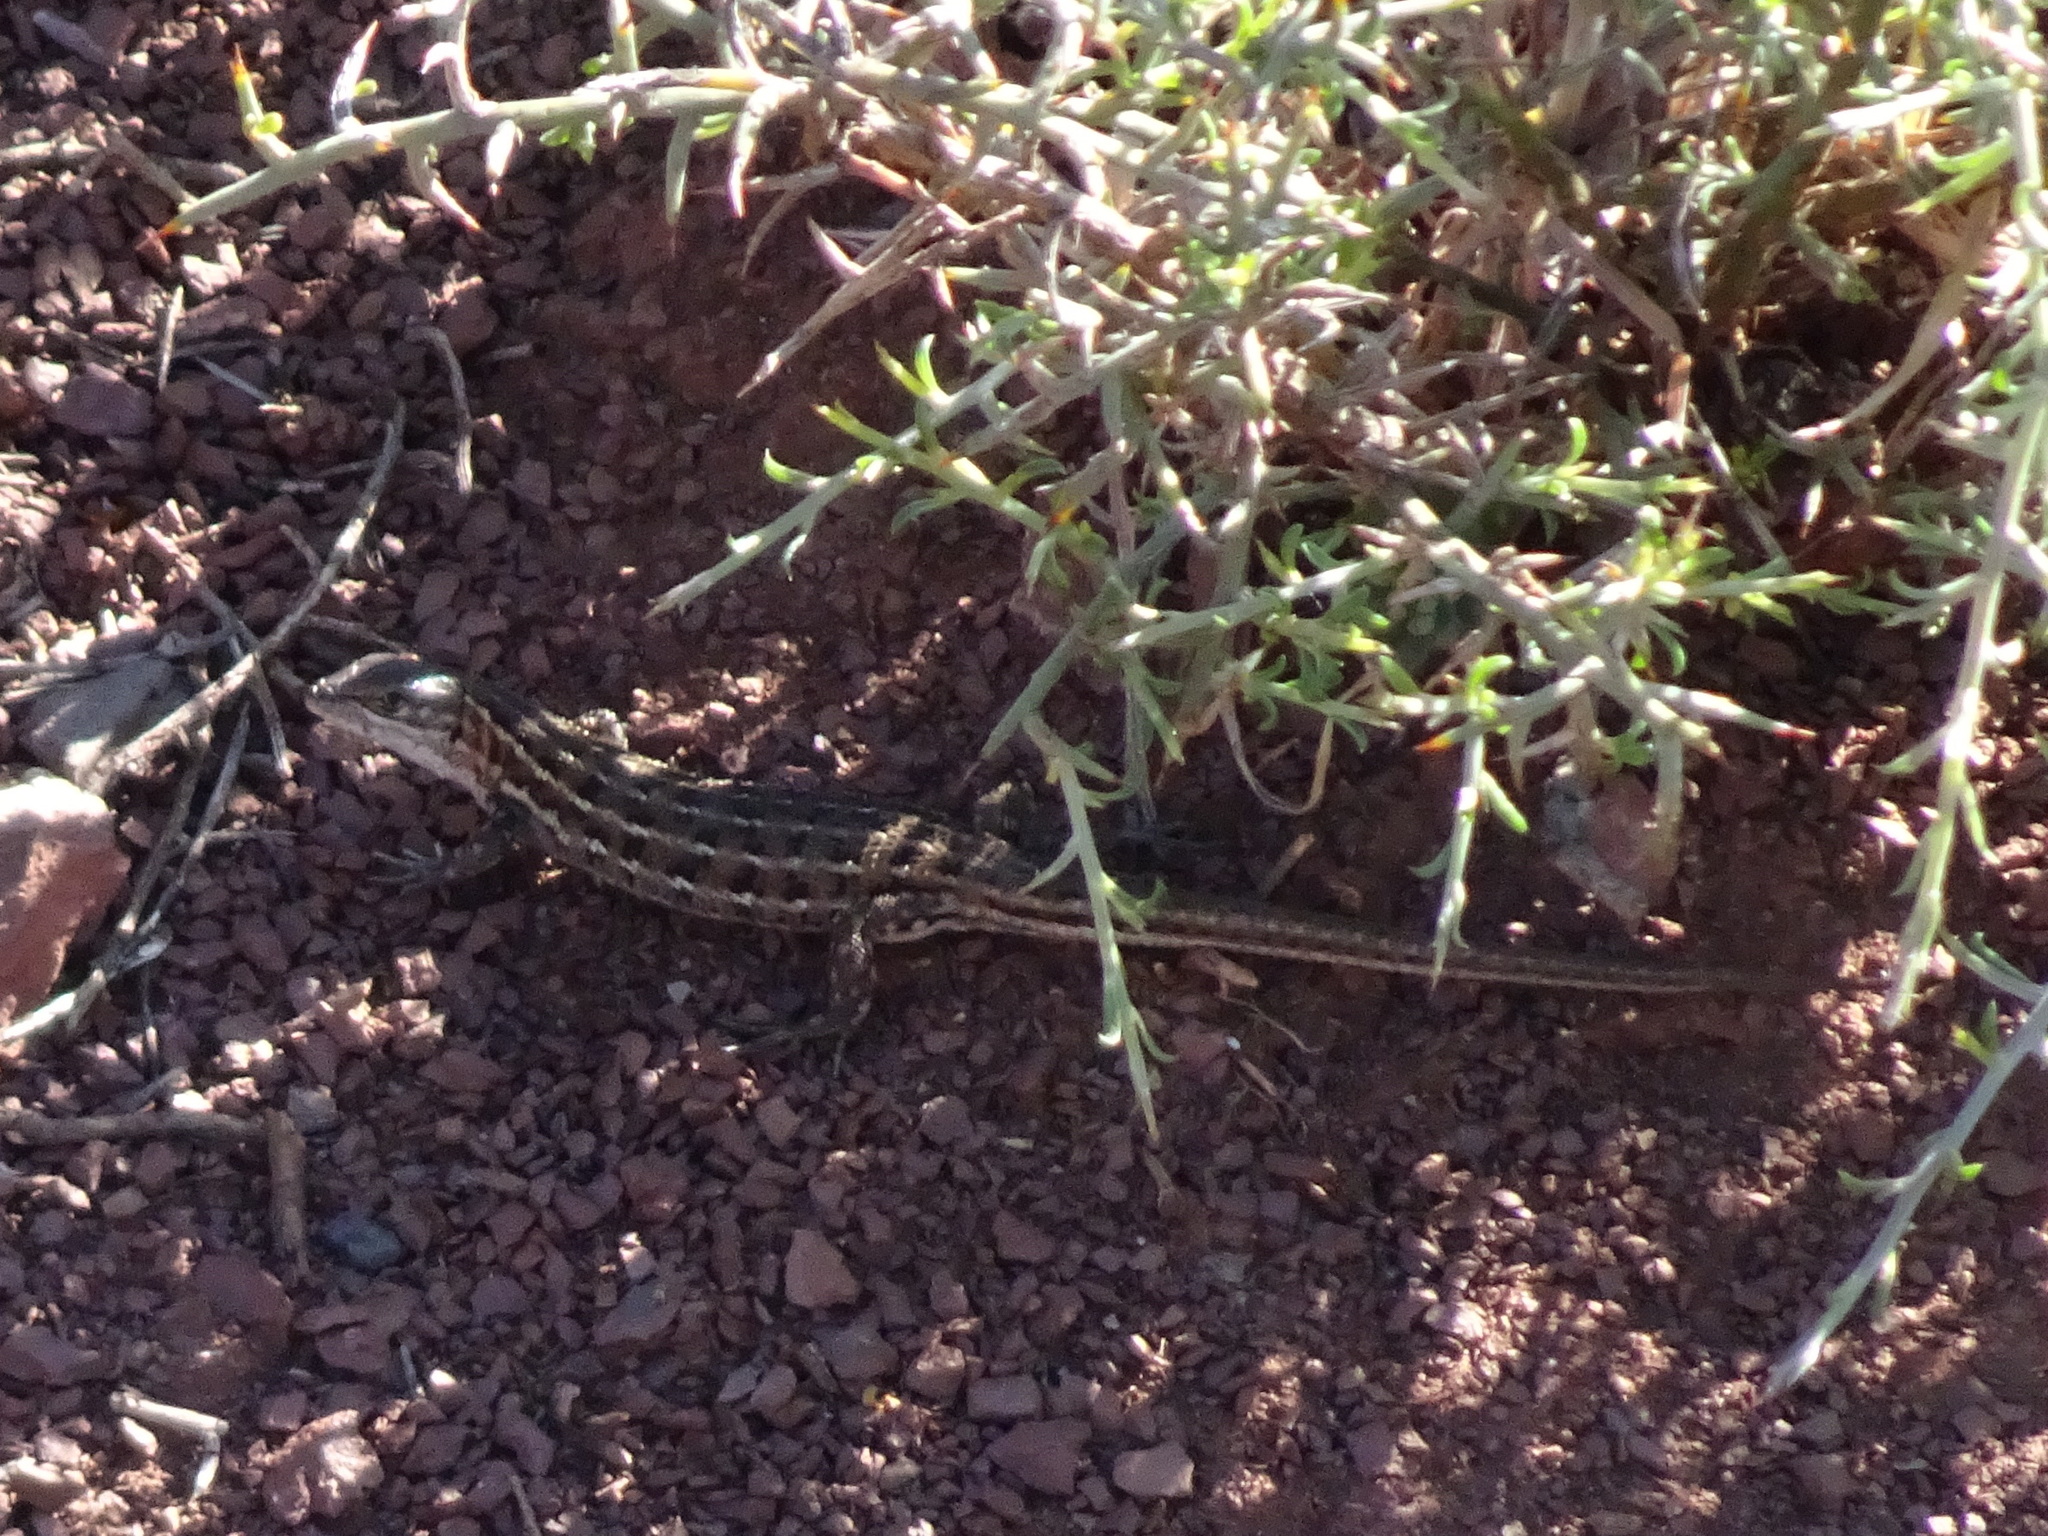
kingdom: Animalia
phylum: Chordata
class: Squamata
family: Lacertidae
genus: Psammodromus
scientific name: Psammodromus edwarsianus
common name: East iberian psammodromus
